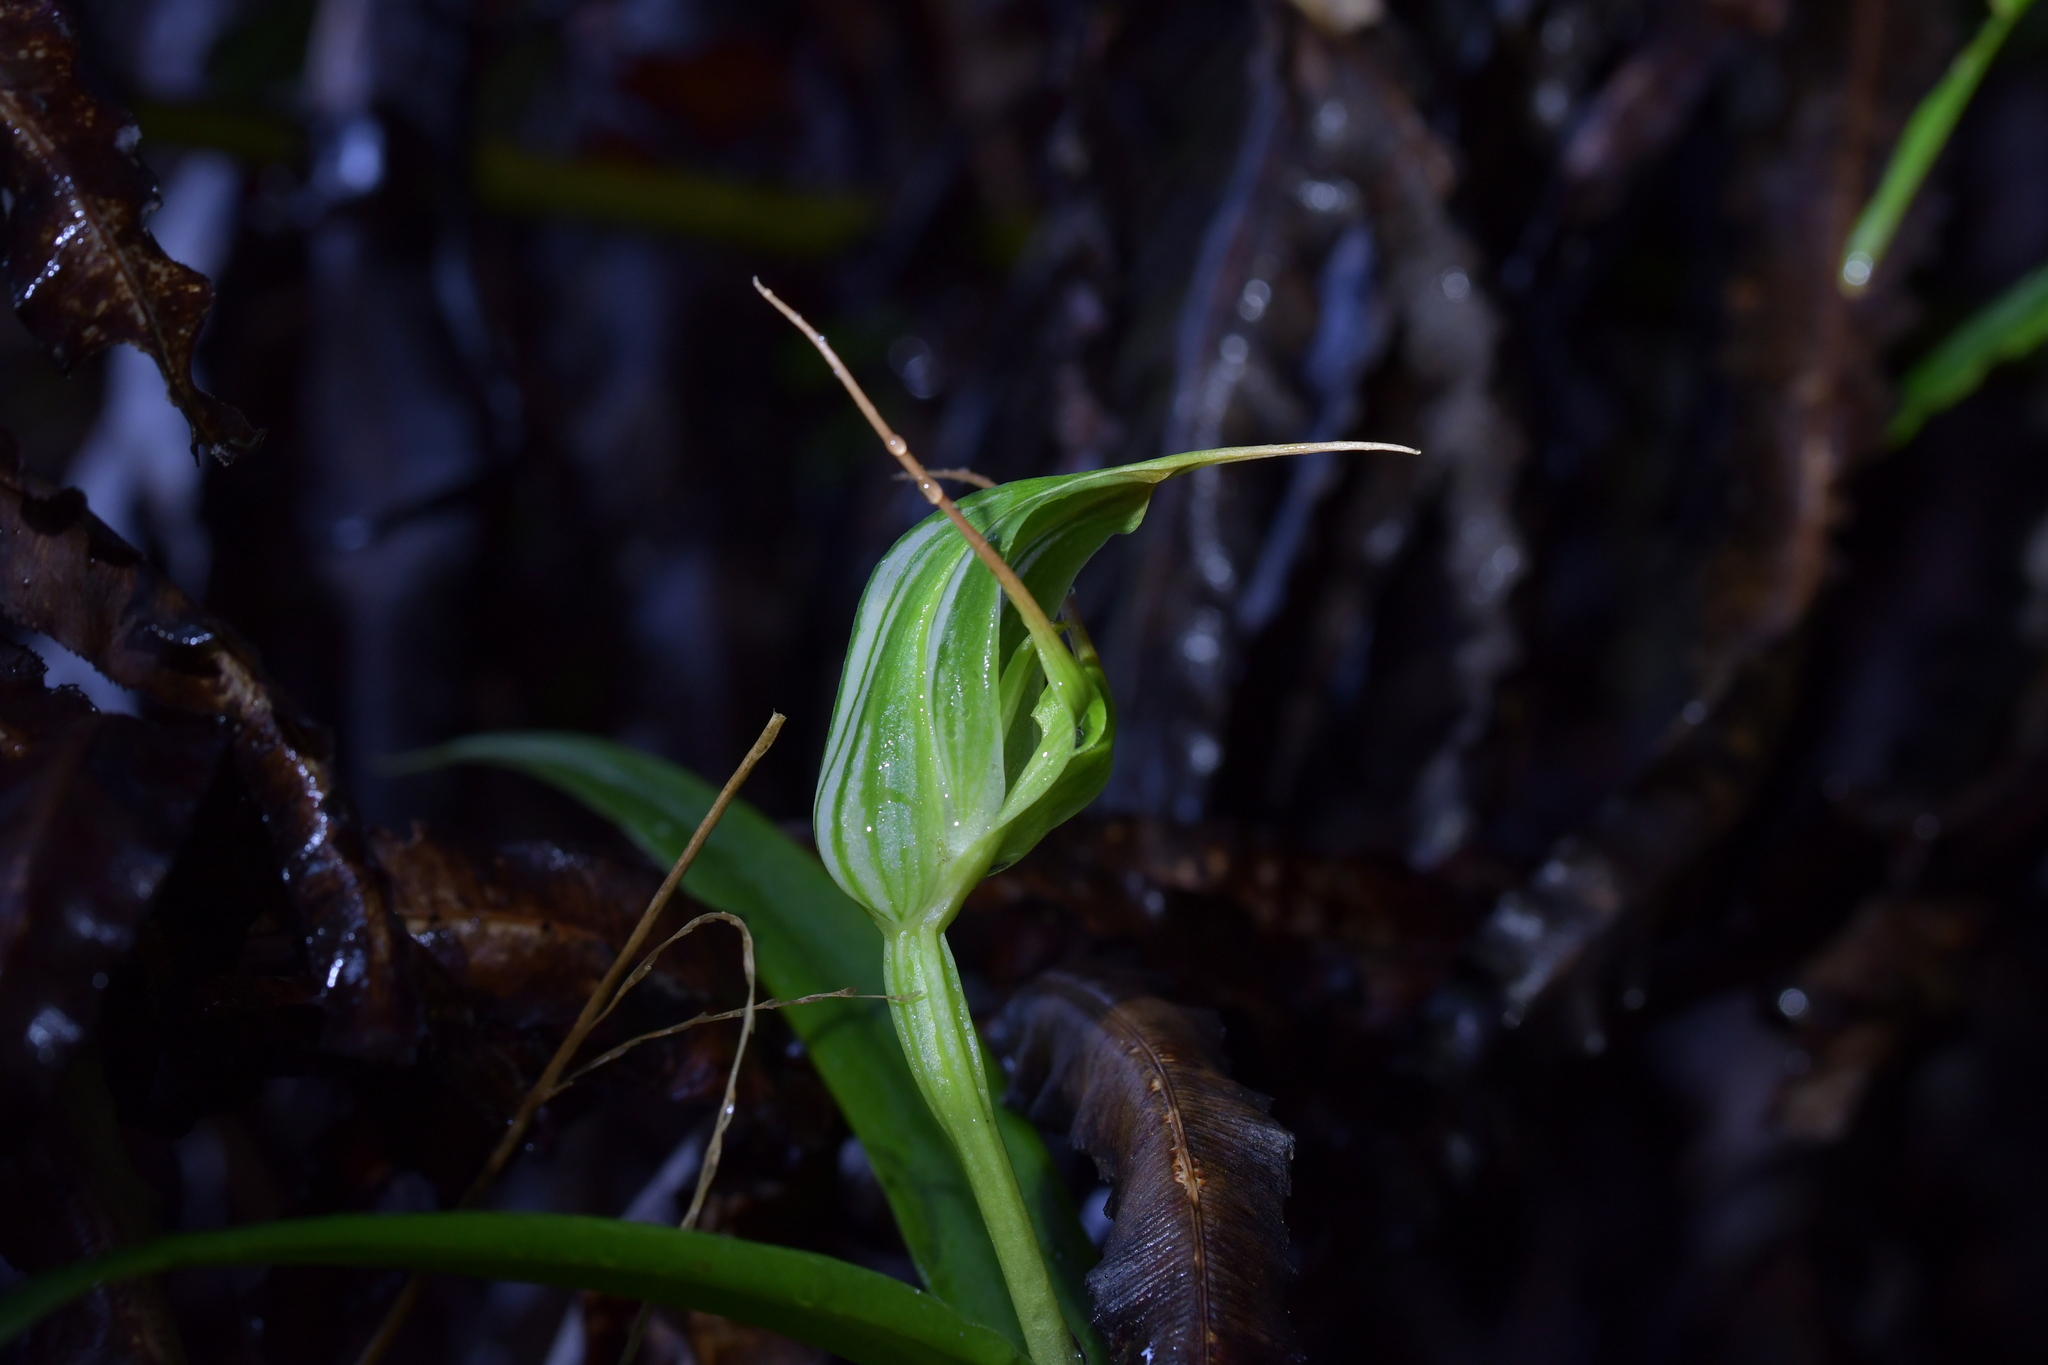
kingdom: Plantae
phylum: Tracheophyta
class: Liliopsida
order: Asparagales
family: Orchidaceae
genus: Pterostylis
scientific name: Pterostylis banksii
